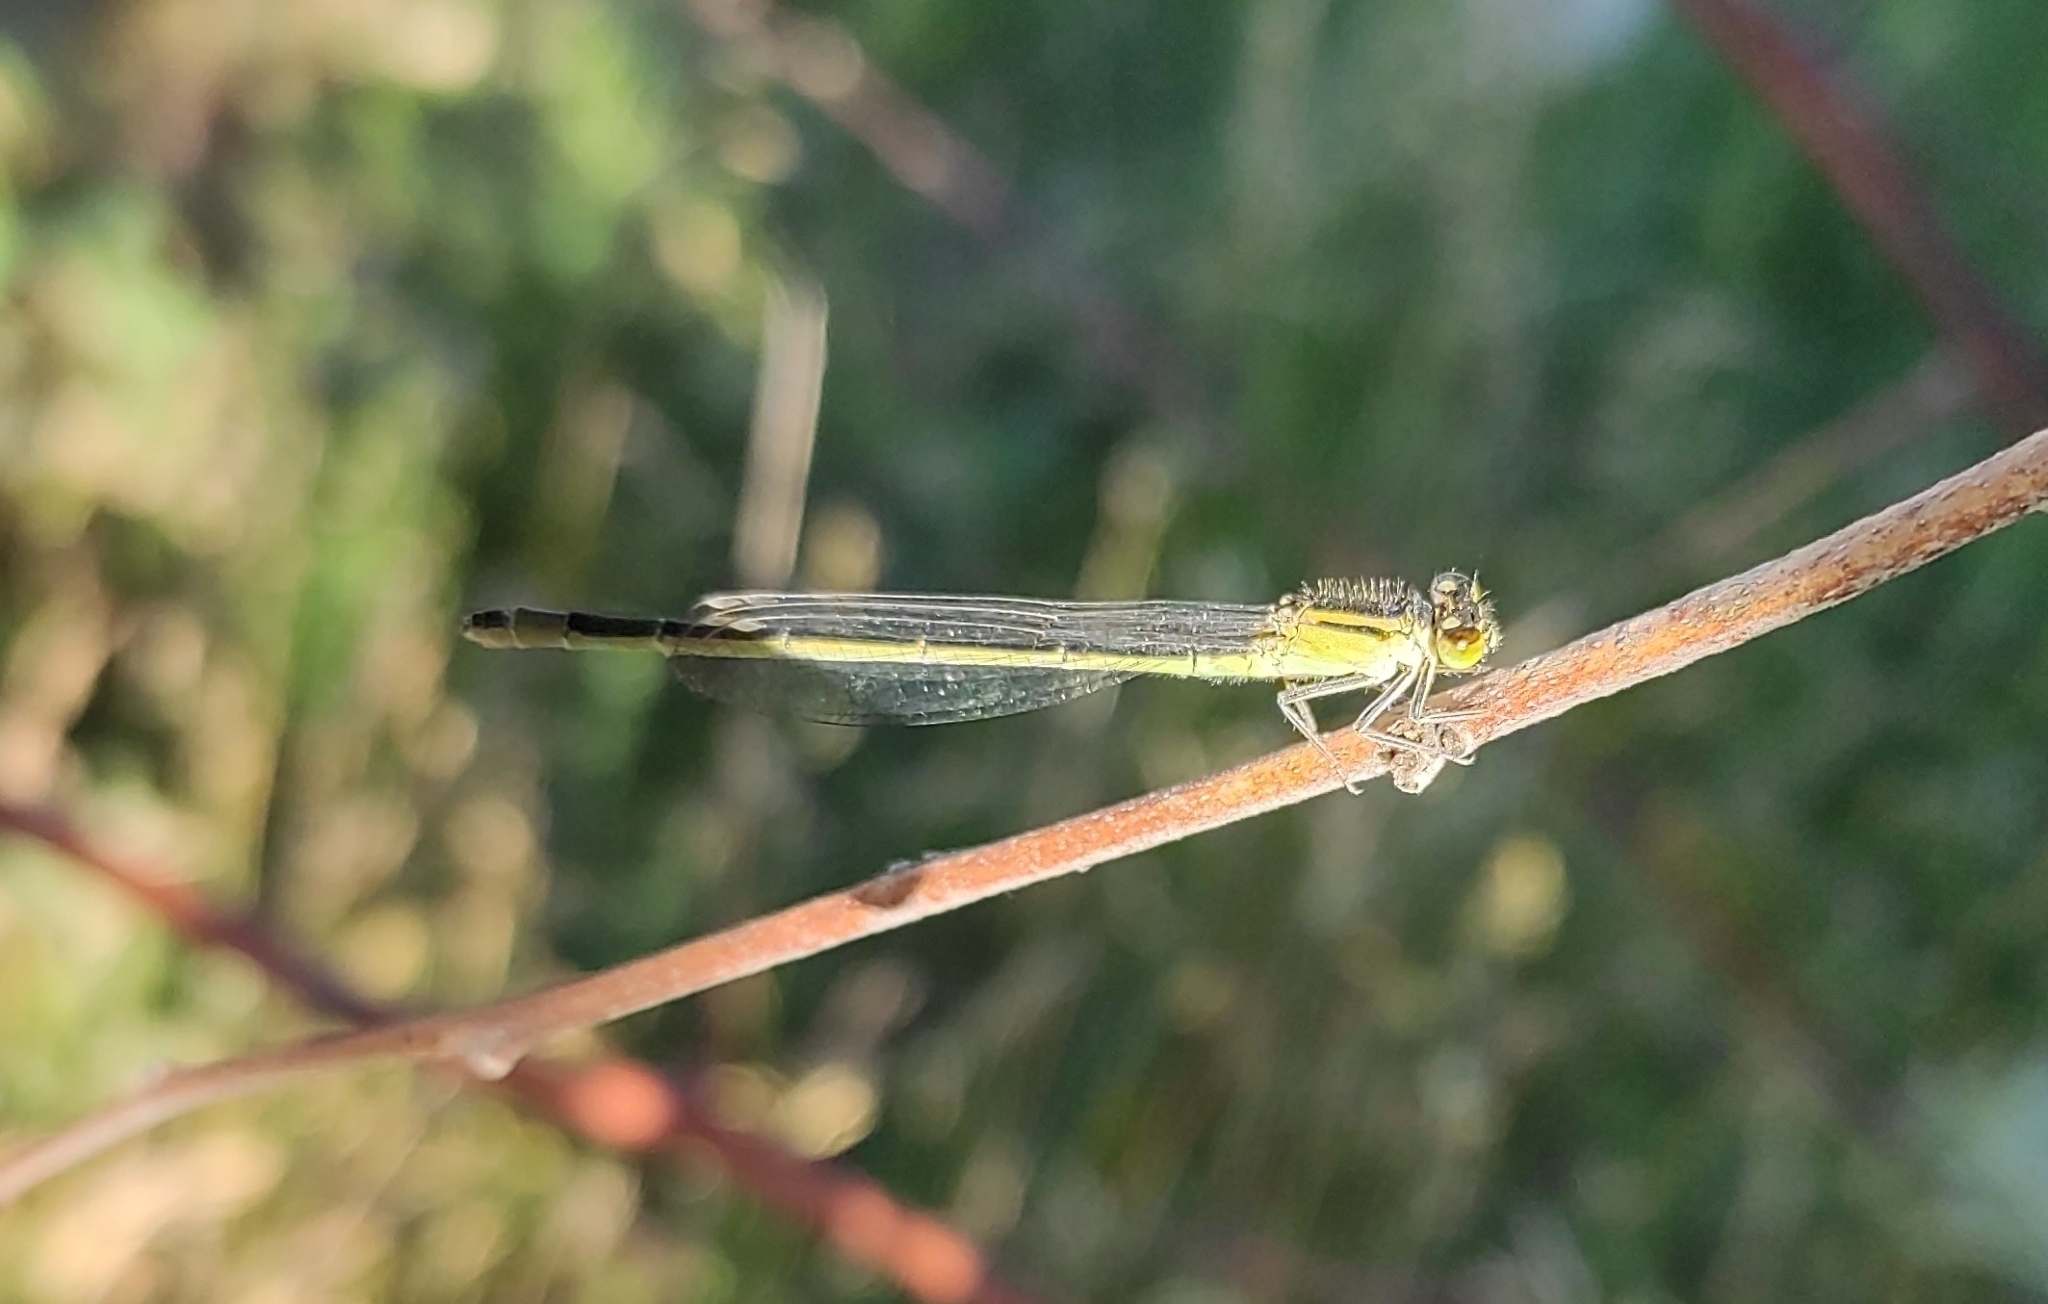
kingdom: Animalia
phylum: Arthropoda
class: Insecta
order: Odonata
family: Coenagrionidae
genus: Ischnura
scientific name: Ischnura elegans
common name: Blue-tailed damselfly
